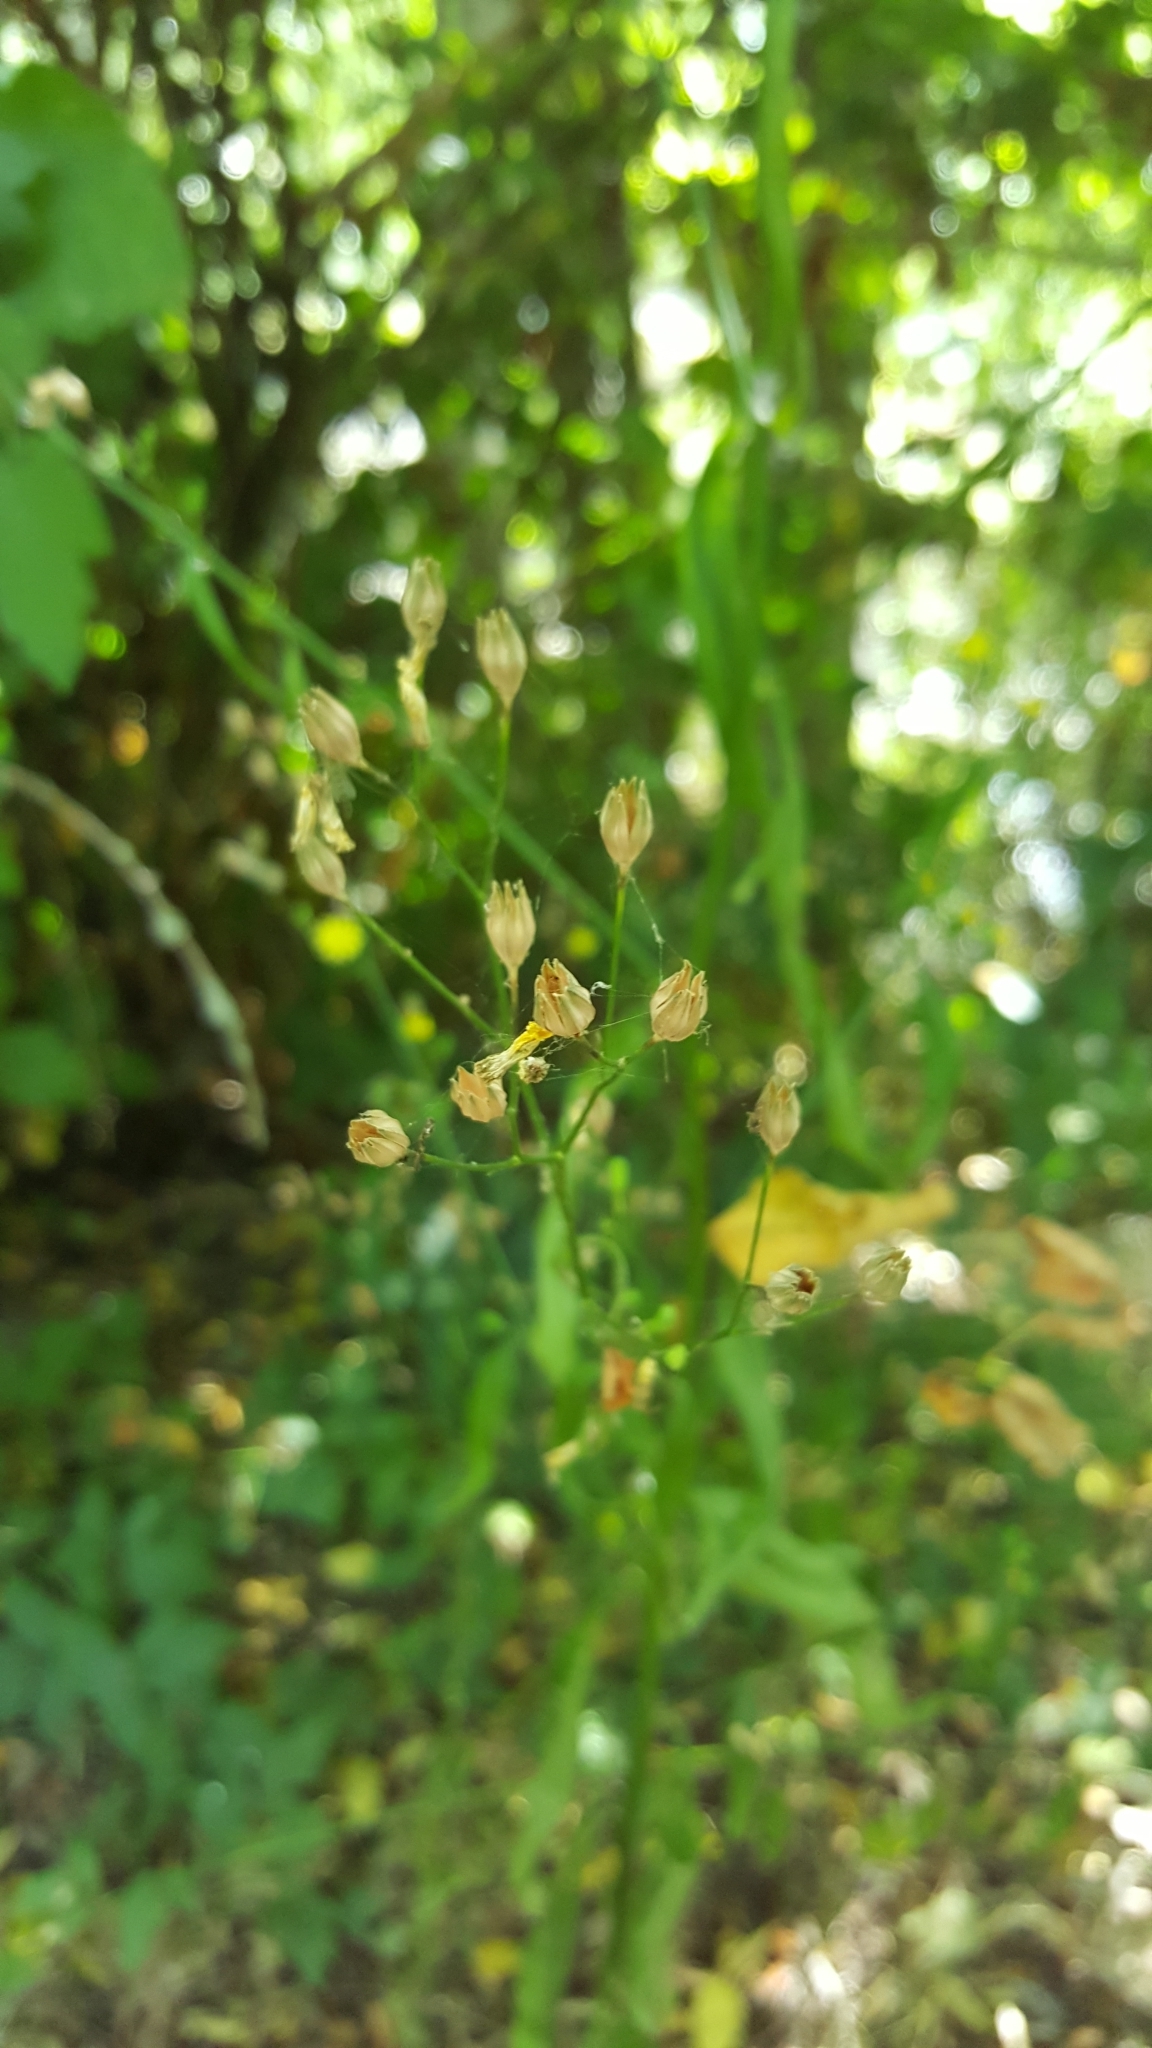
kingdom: Plantae
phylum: Tracheophyta
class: Magnoliopsida
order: Asterales
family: Asteraceae
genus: Lapsana
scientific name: Lapsana communis
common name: Nipplewort
